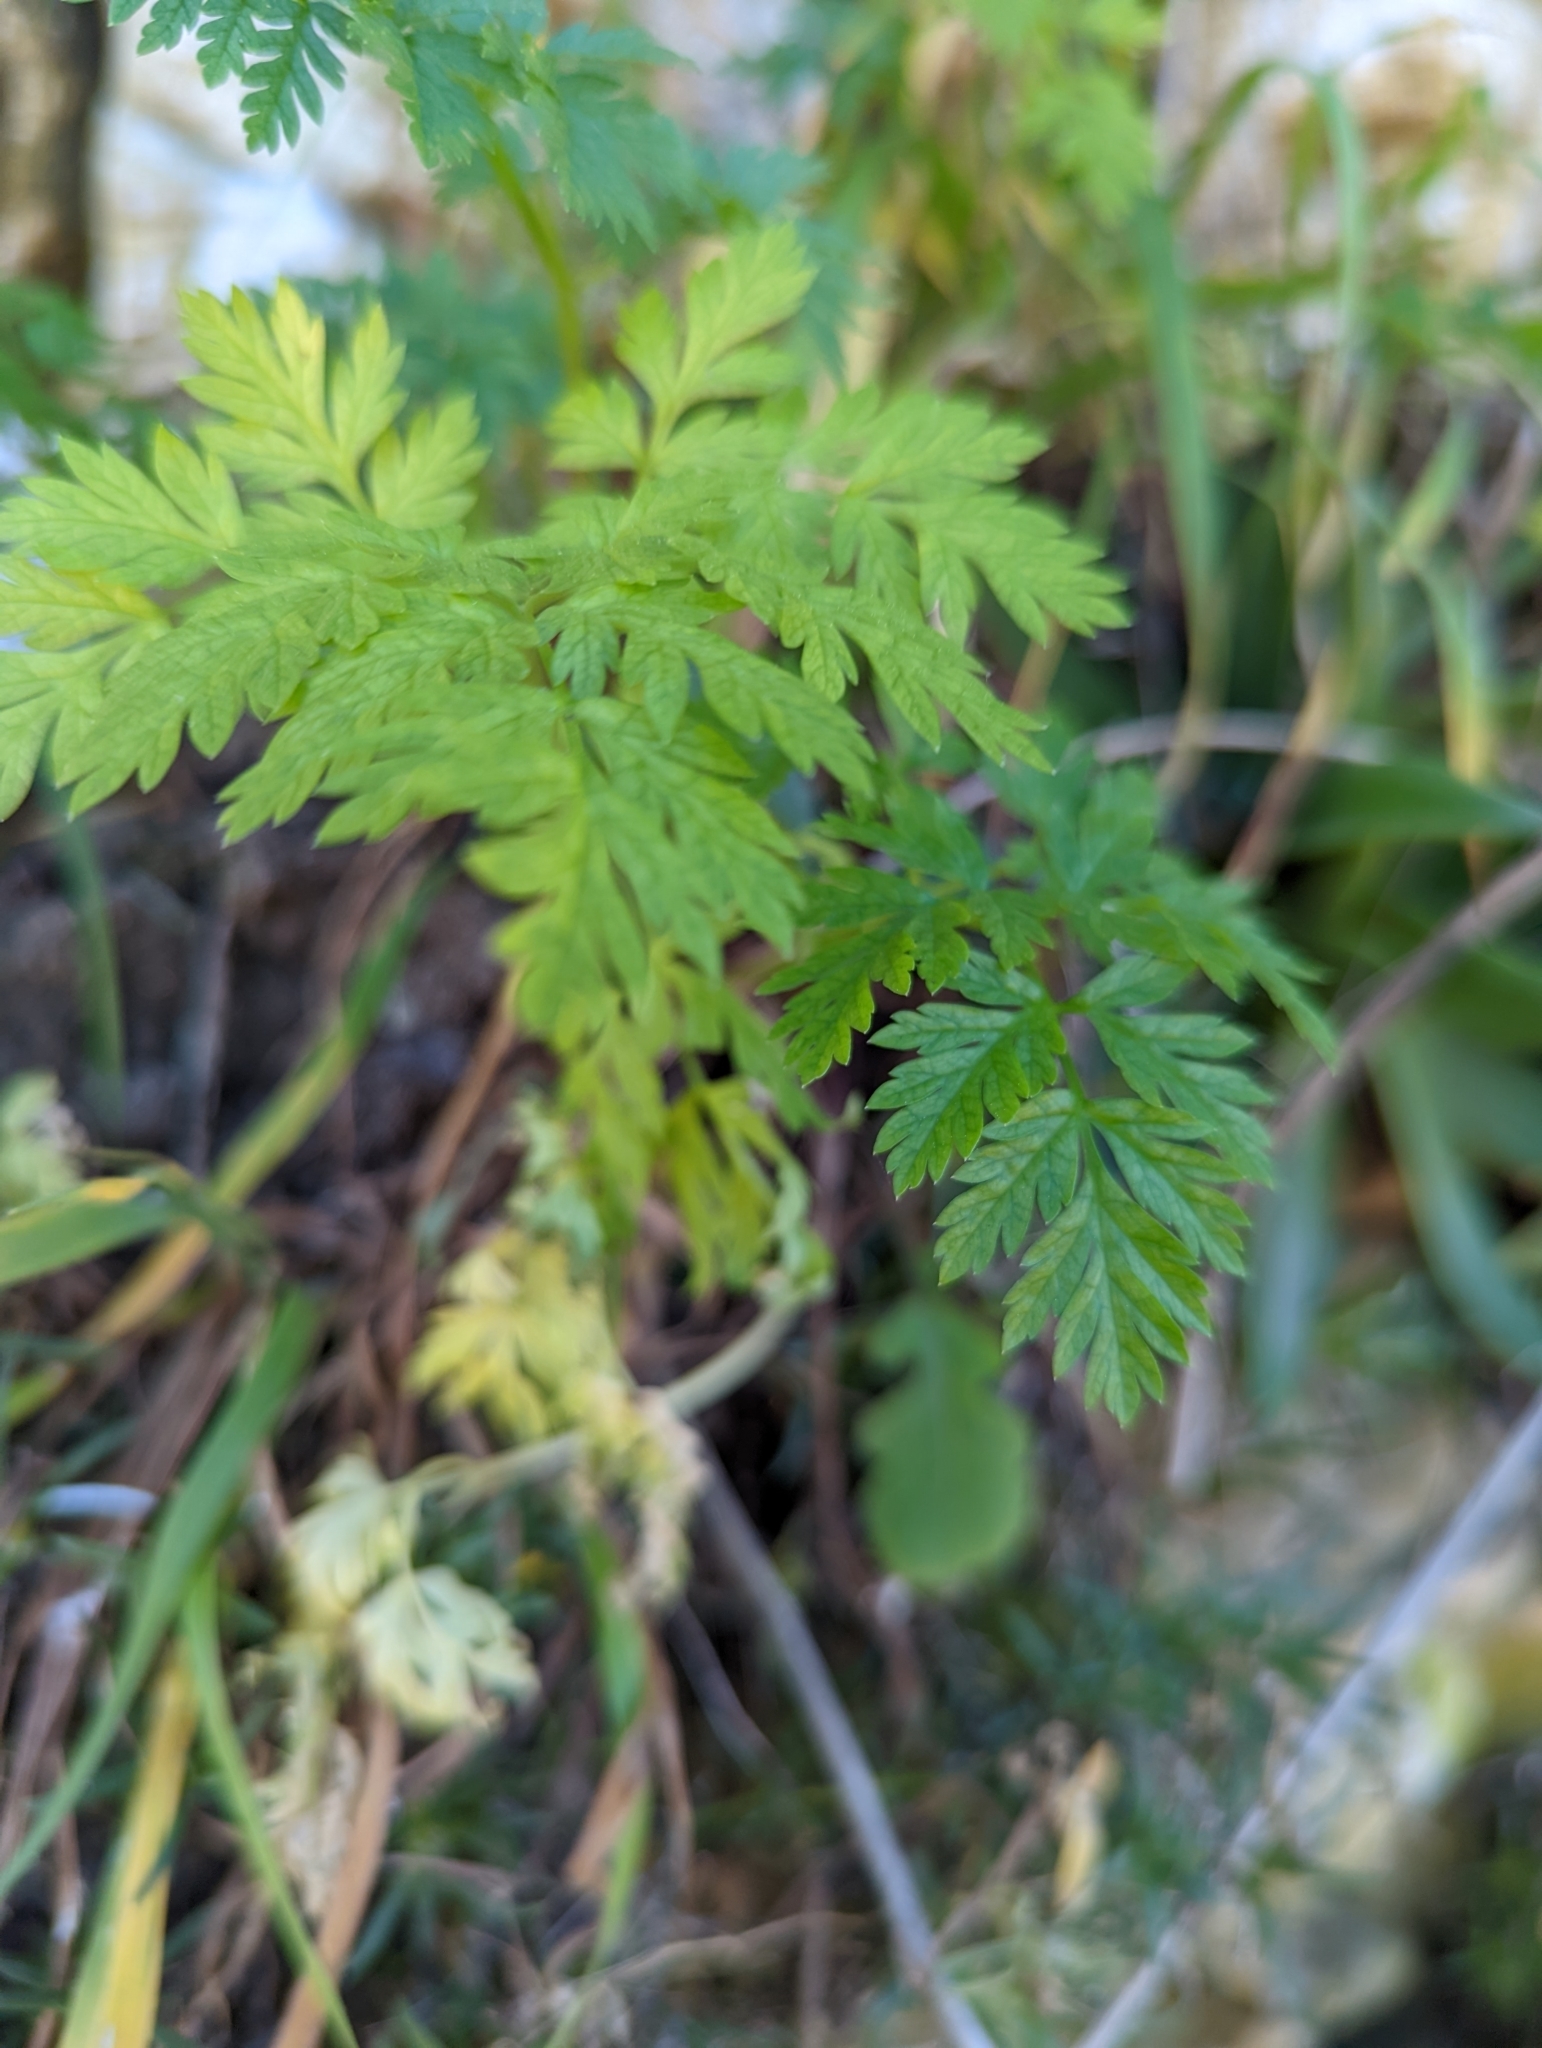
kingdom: Plantae
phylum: Tracheophyta
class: Magnoliopsida
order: Apiales
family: Apiaceae
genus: Conium
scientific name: Conium maculatum
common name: Hemlock
